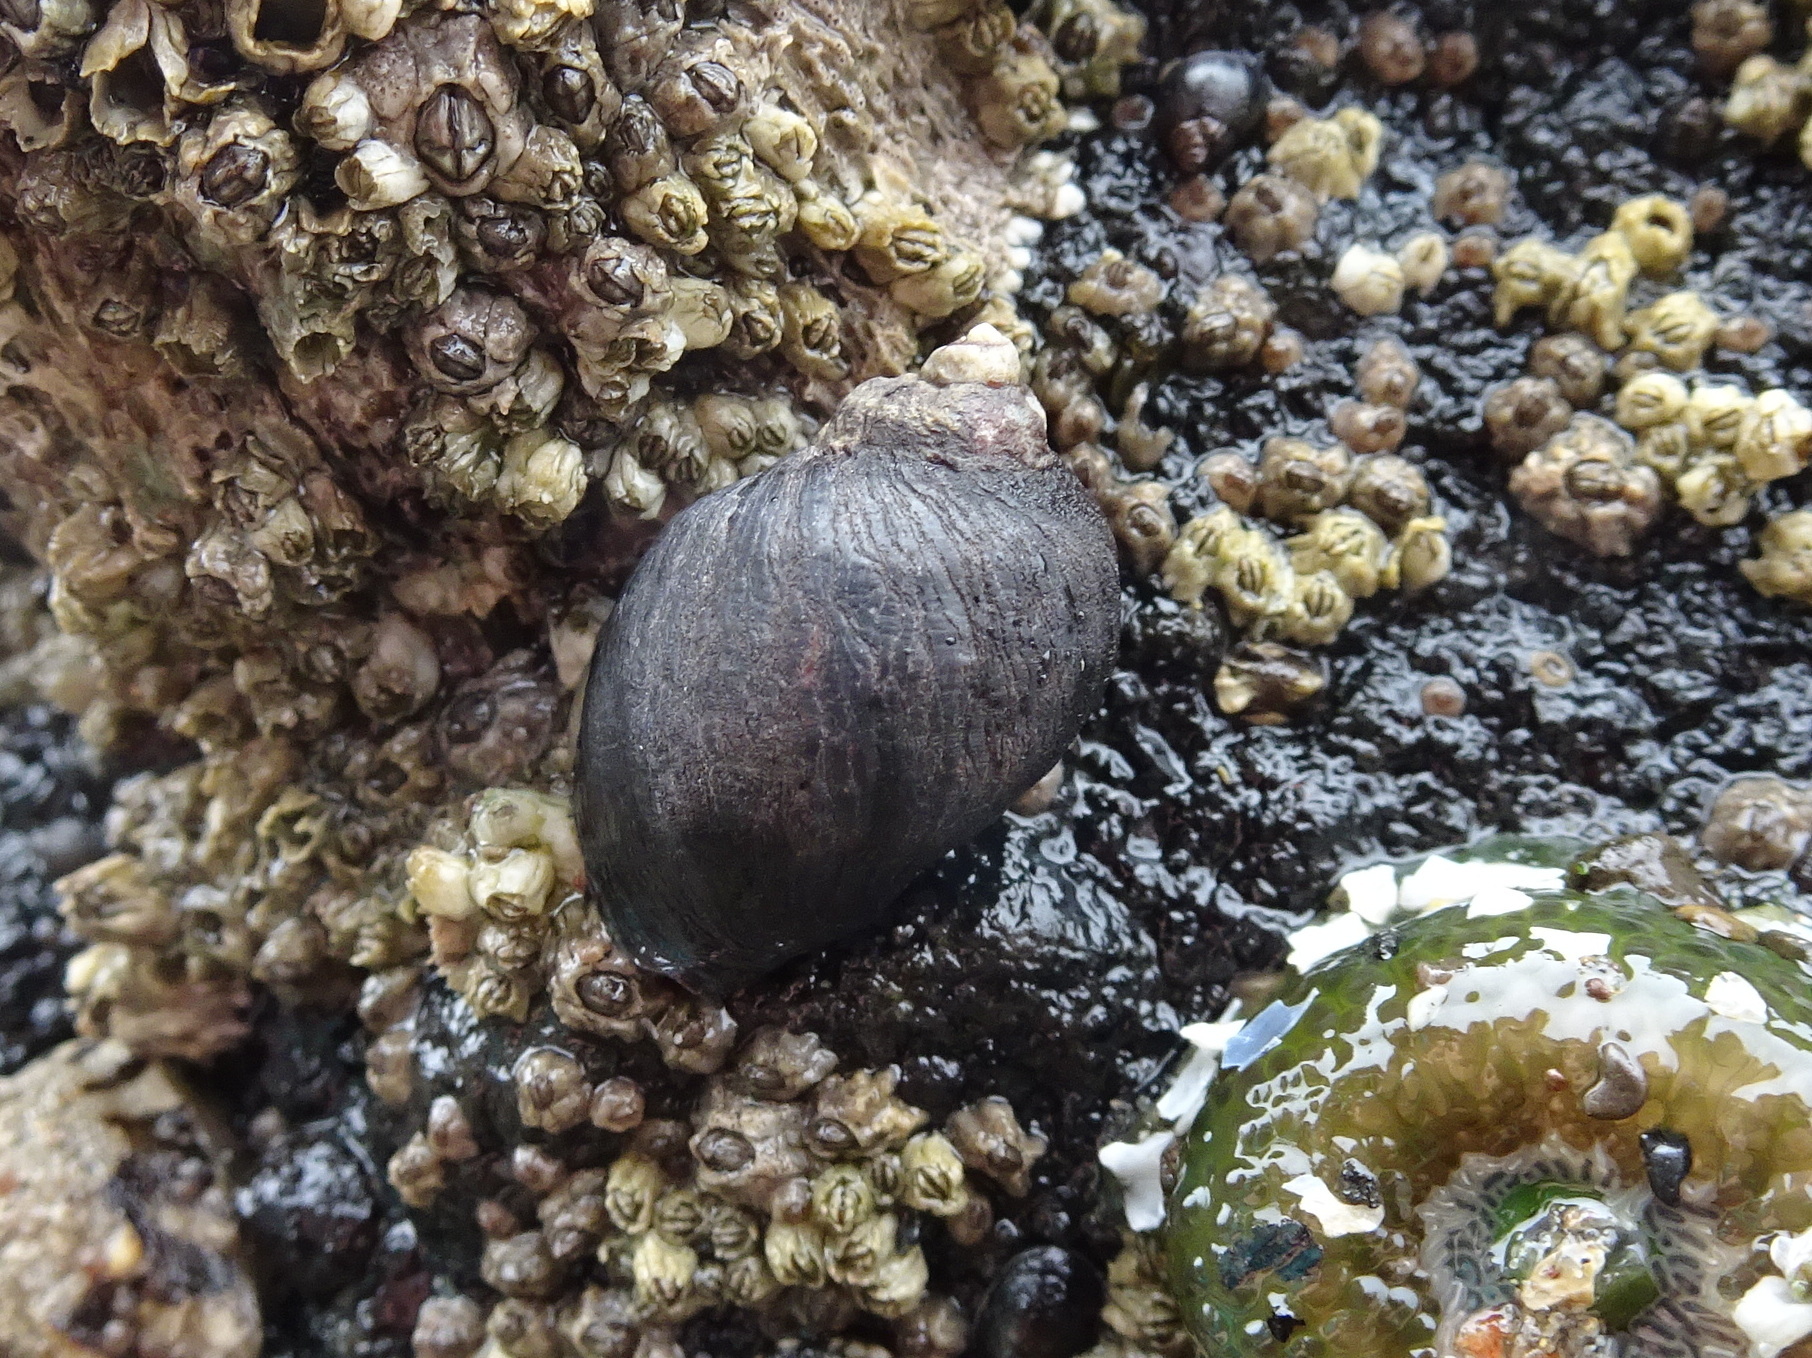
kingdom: Animalia
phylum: Mollusca
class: Gastropoda
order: Neogastropoda
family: Muricidae
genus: Nucella
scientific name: Nucella ostrina
